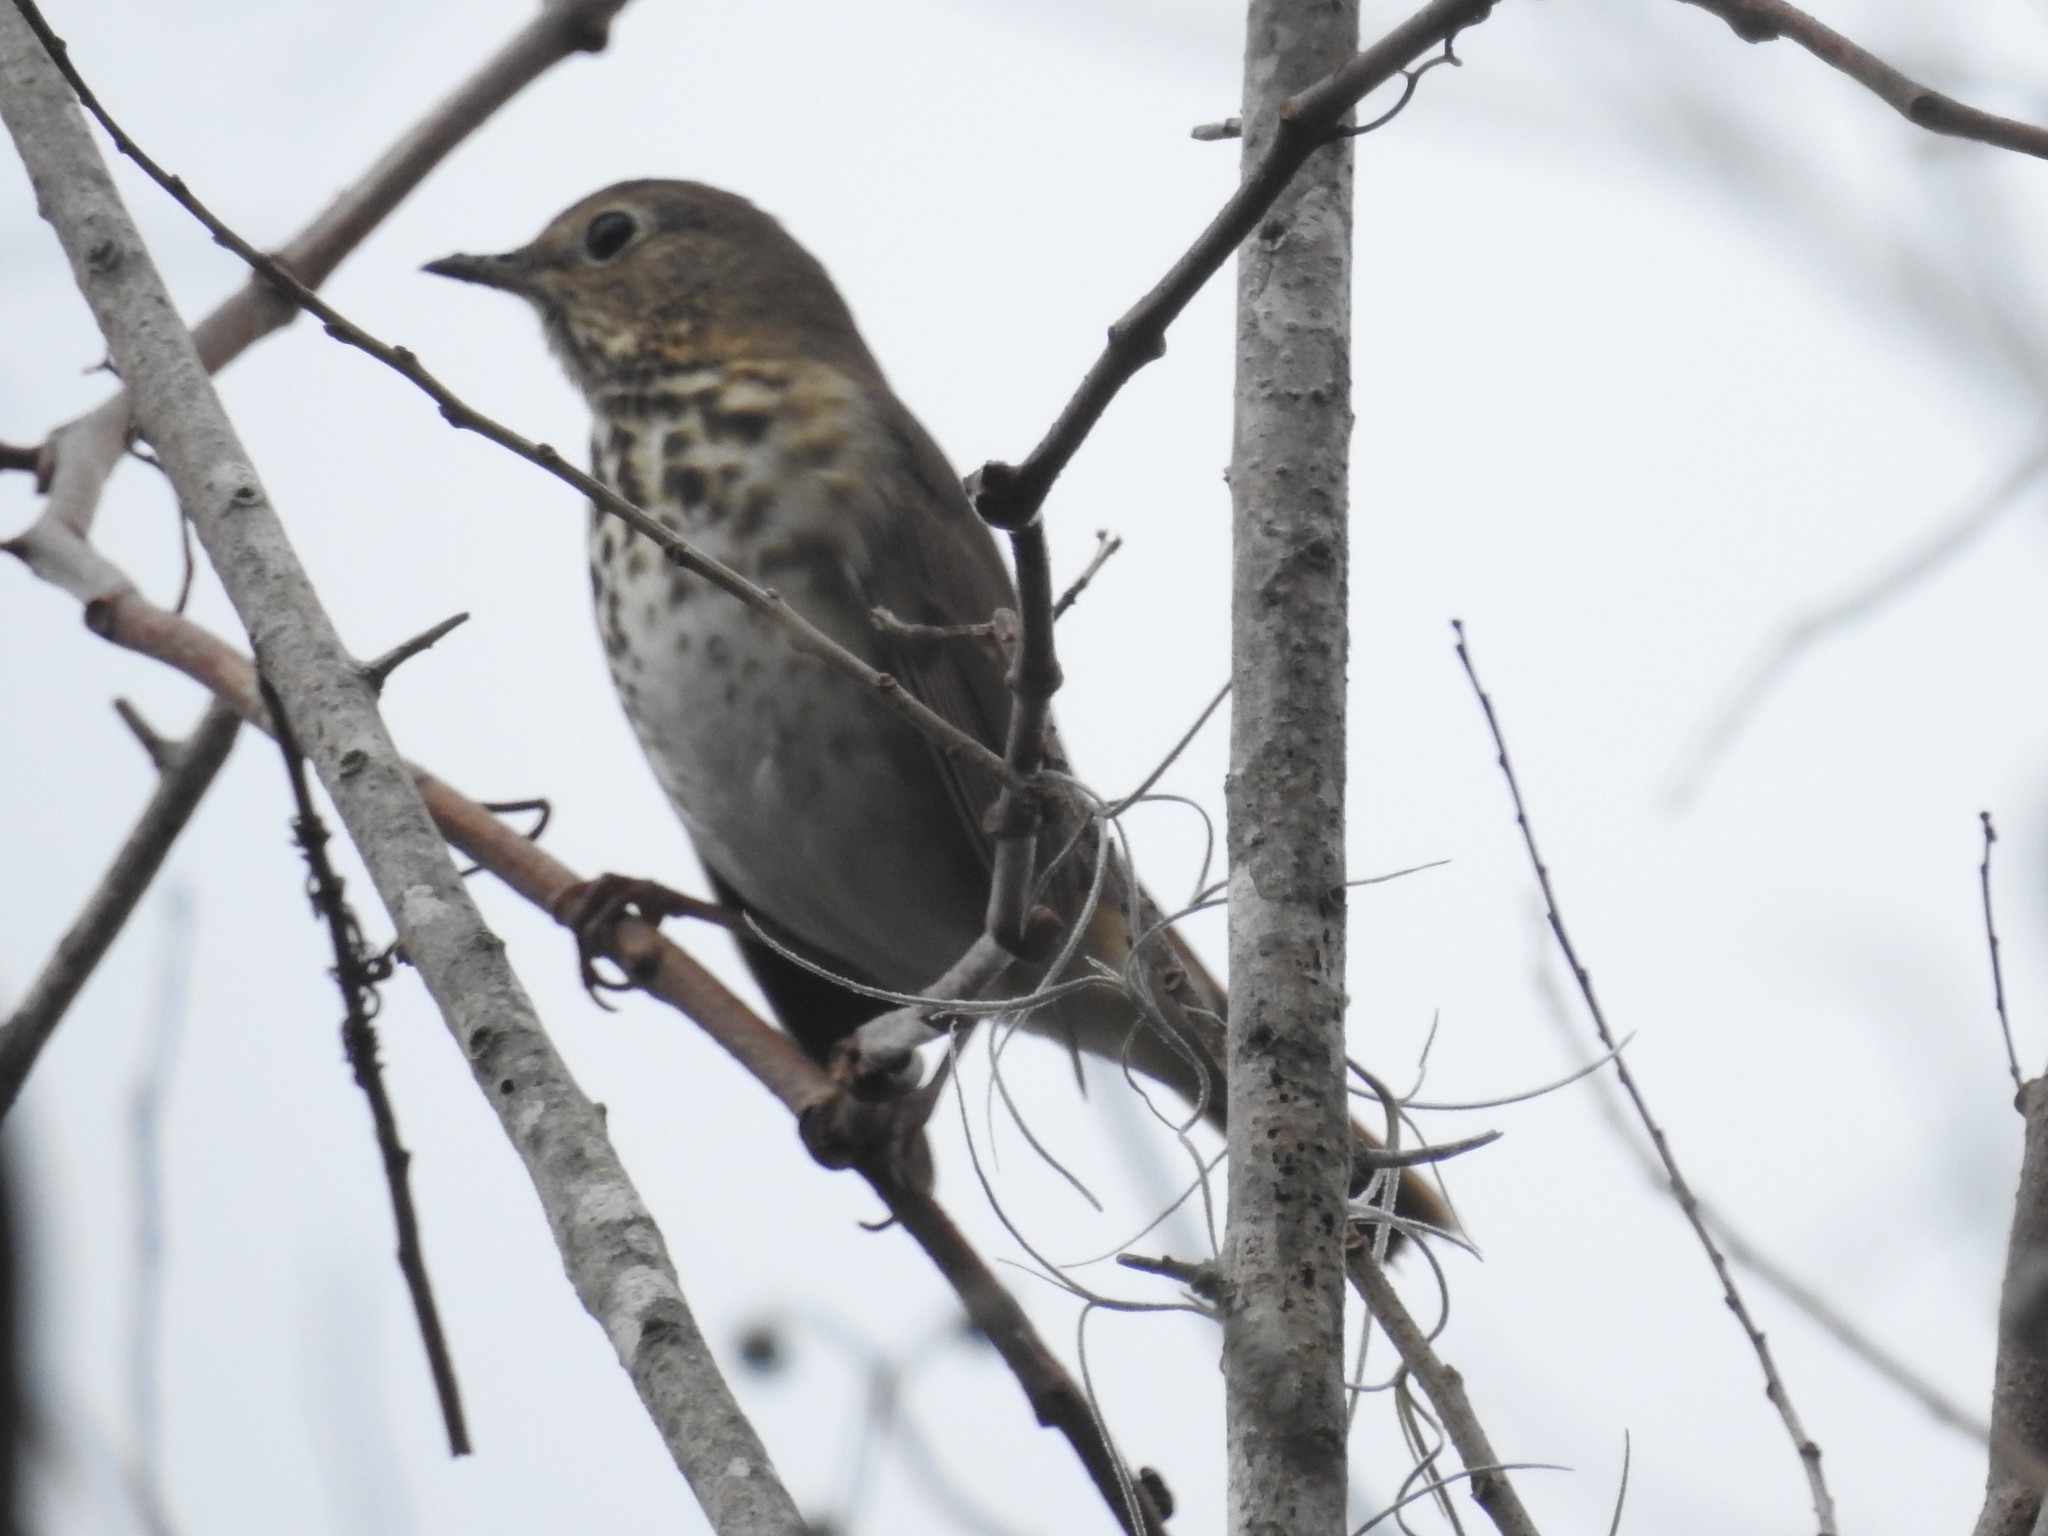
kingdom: Animalia
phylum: Chordata
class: Aves
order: Passeriformes
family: Turdidae
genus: Catharus
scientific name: Catharus guttatus
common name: Hermit thrush
